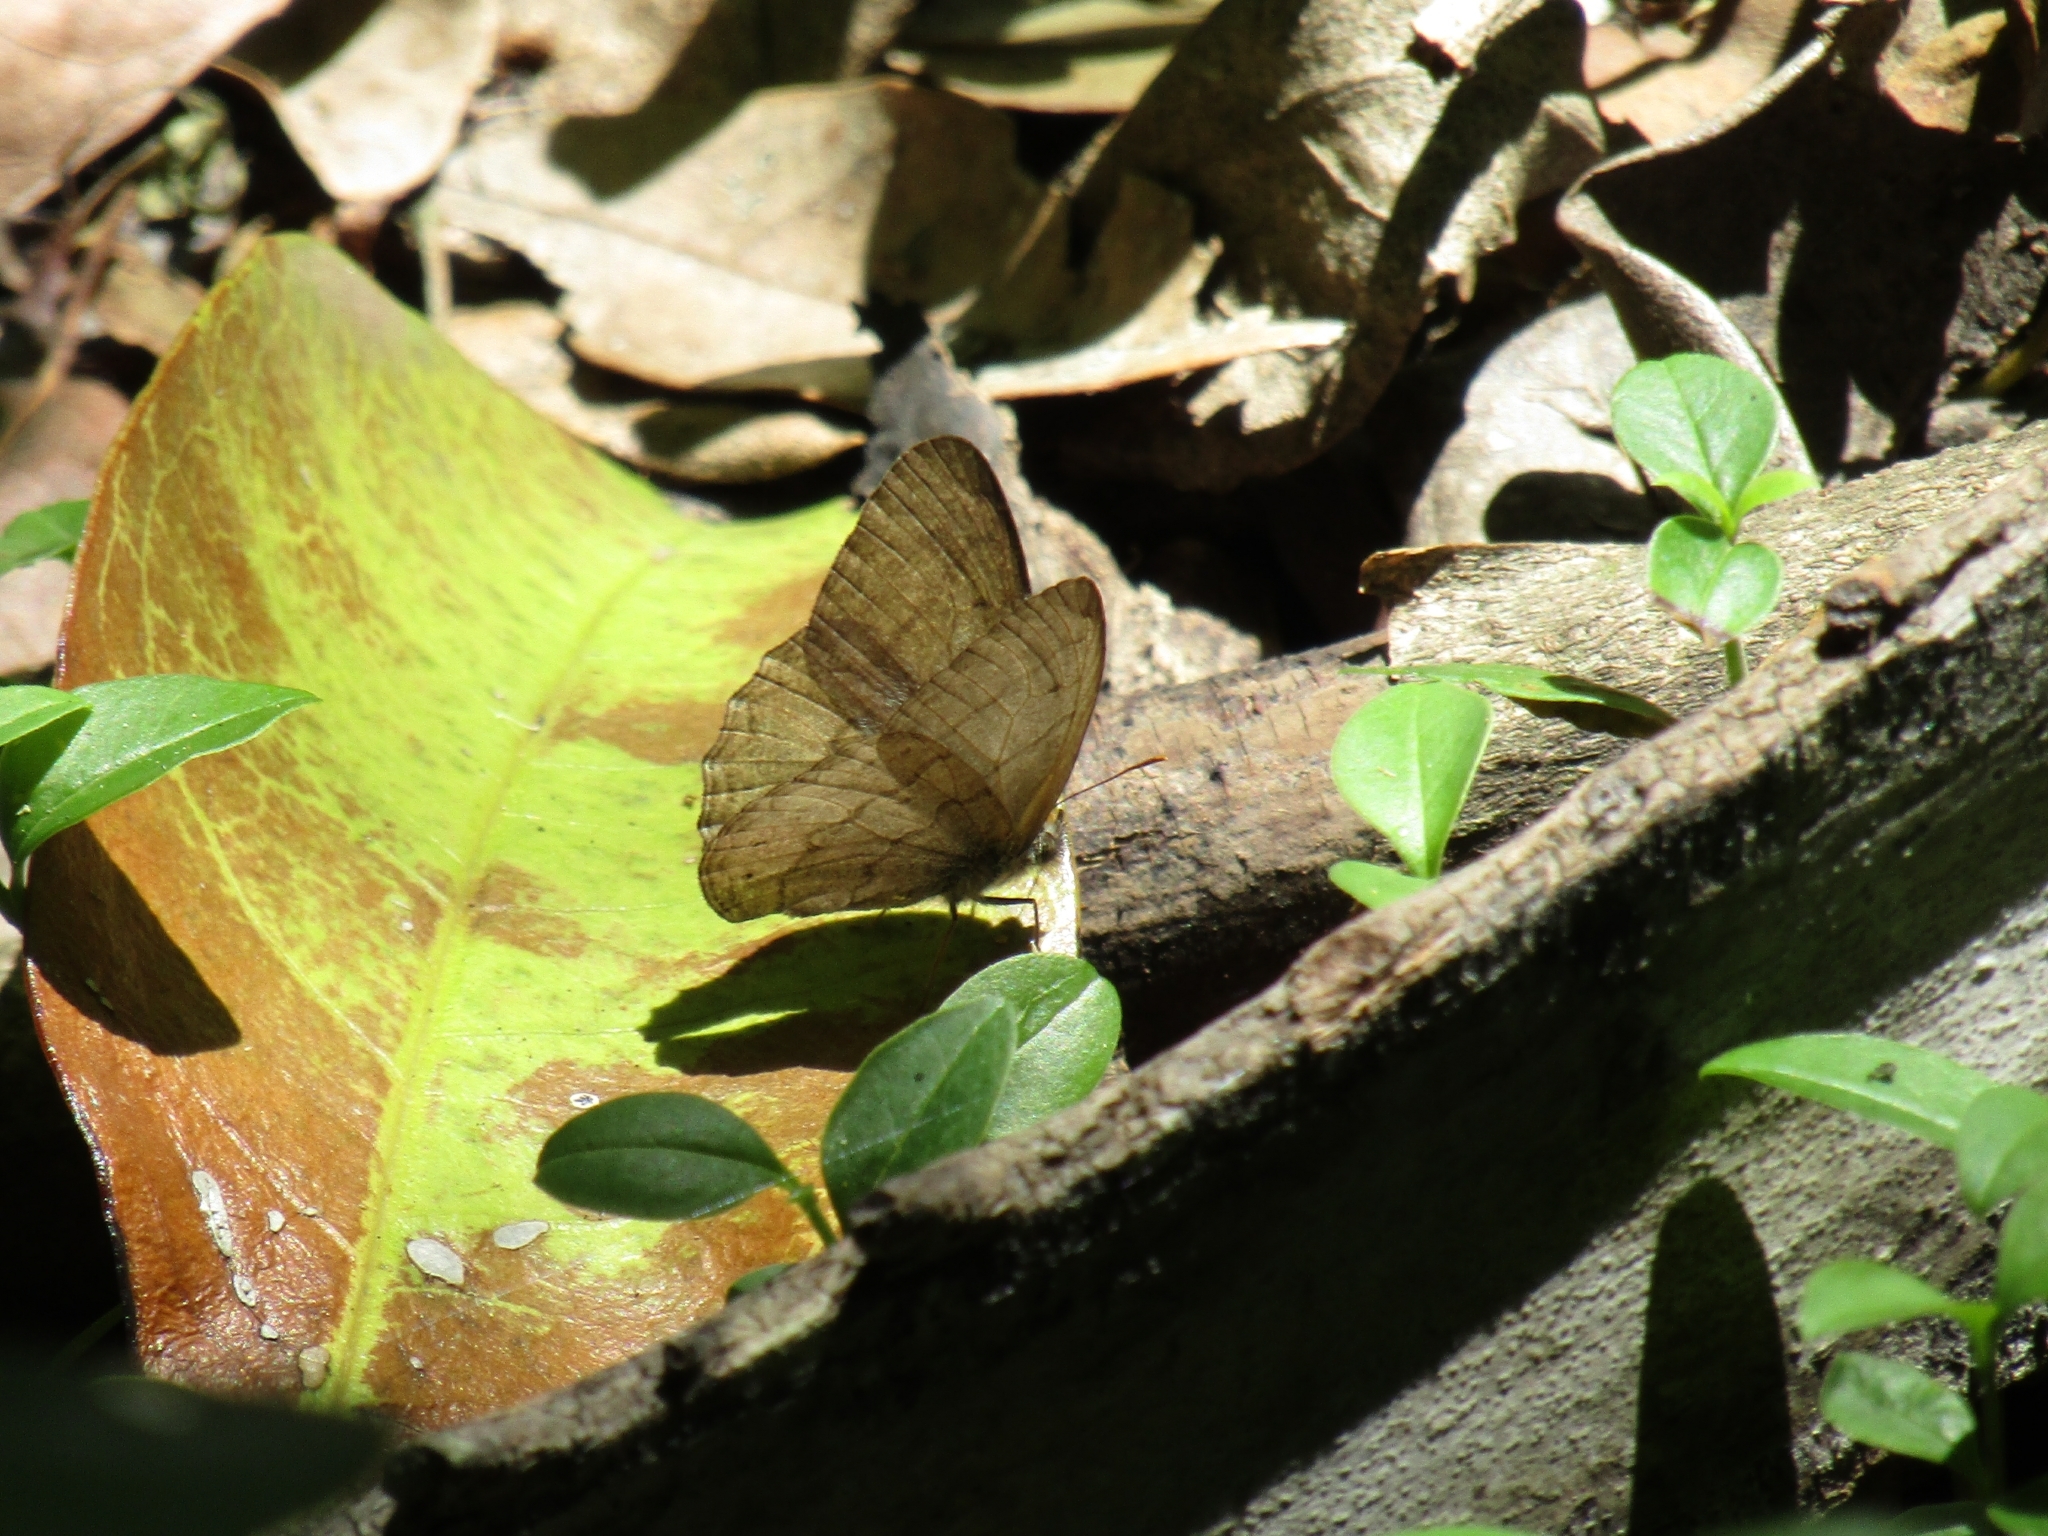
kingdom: Animalia
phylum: Arthropoda
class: Insecta
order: Lepidoptera
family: Nymphalidae
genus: Euptychia
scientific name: Euptychia
